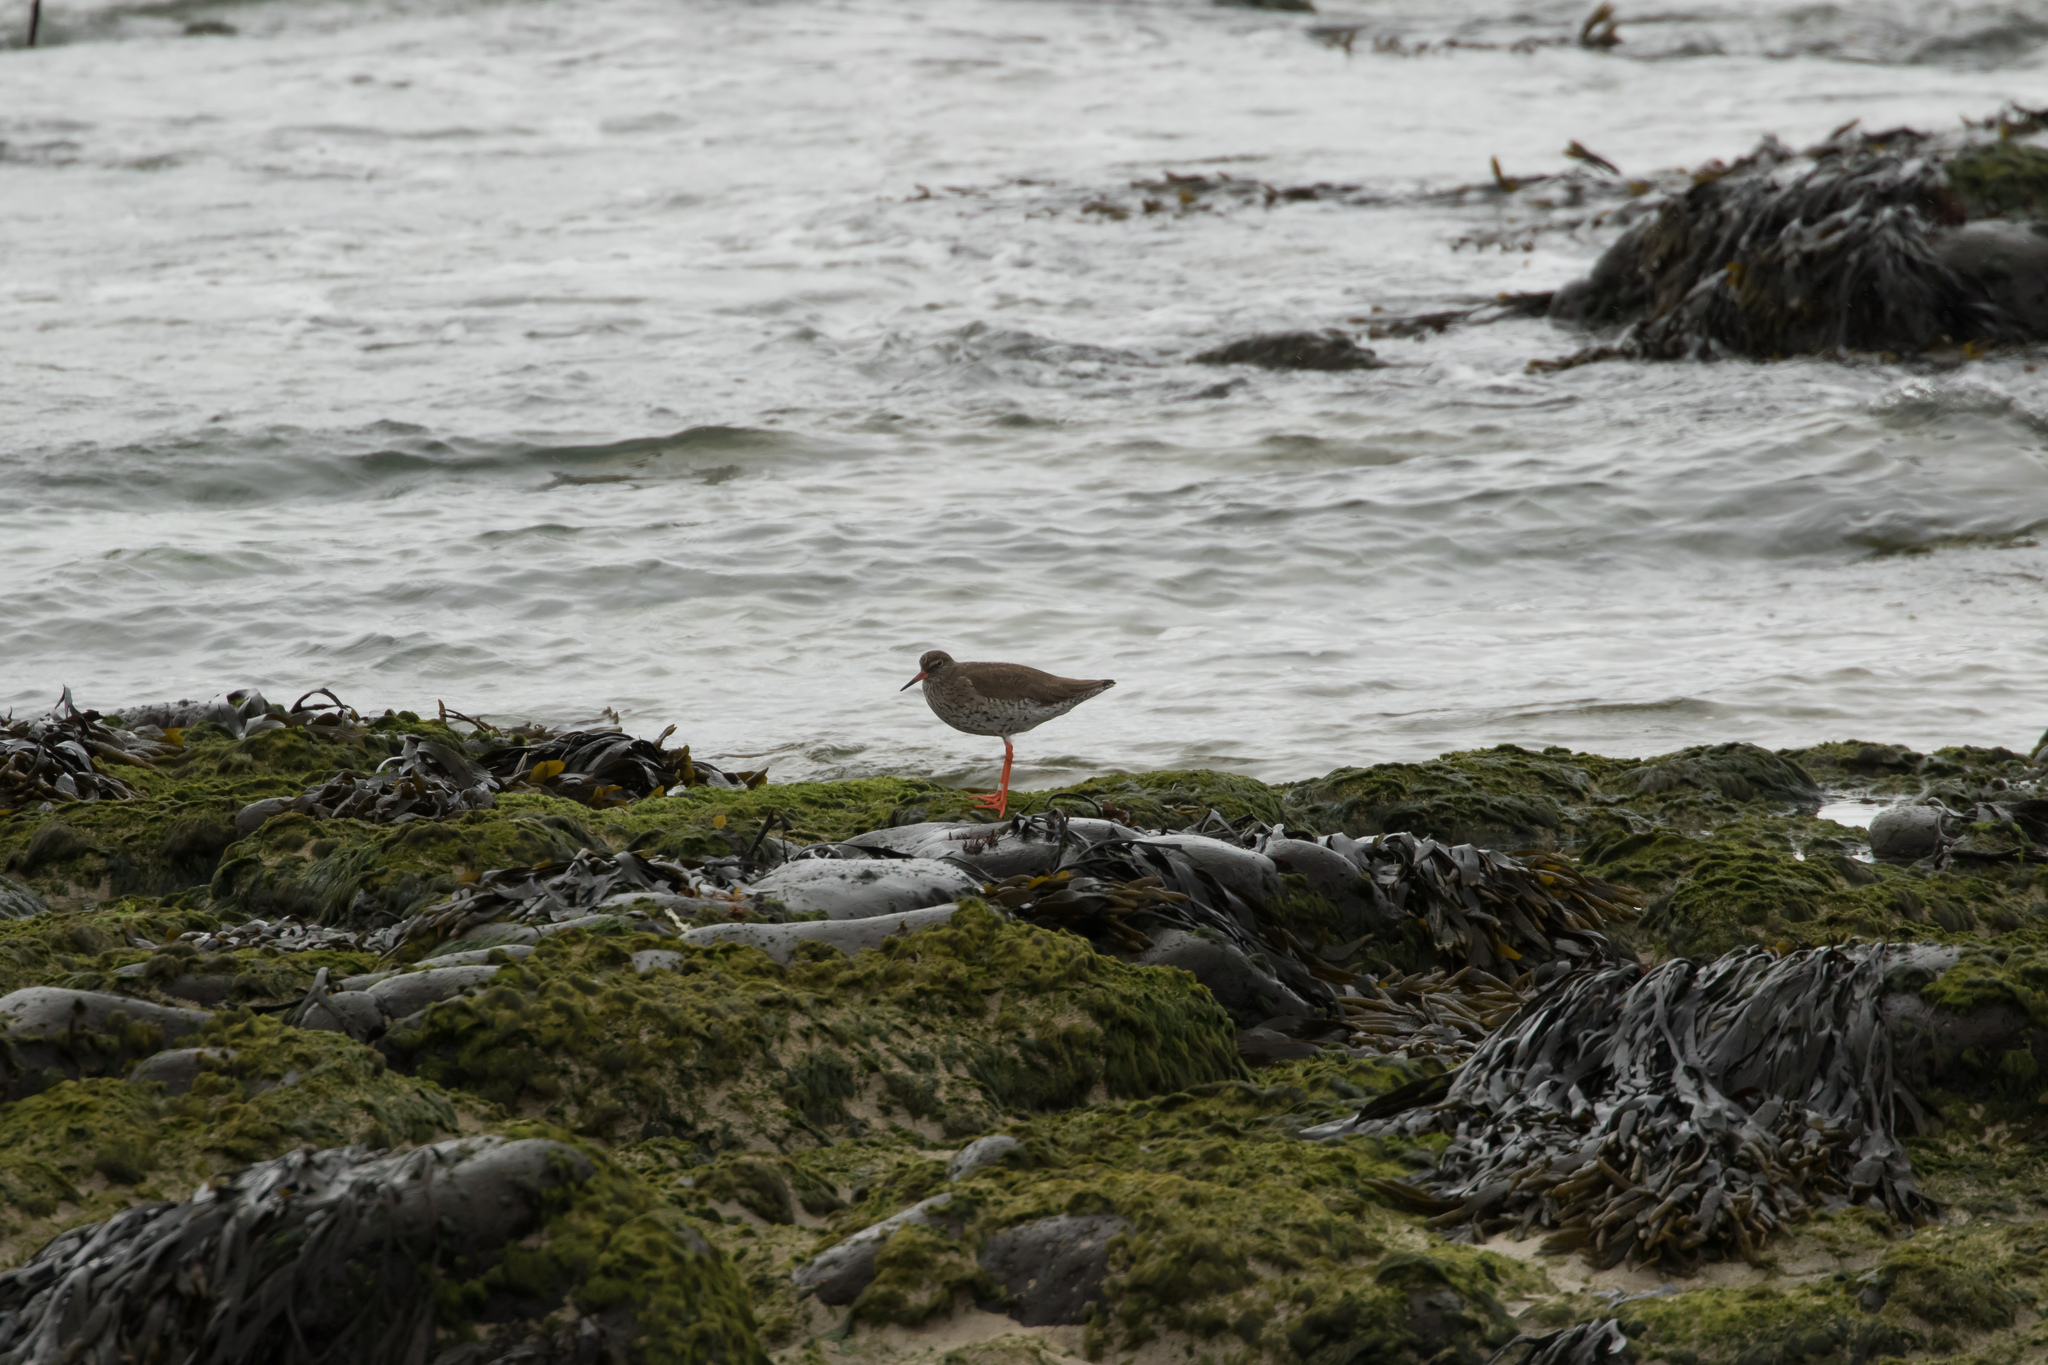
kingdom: Animalia
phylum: Chordata
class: Aves
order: Charadriiformes
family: Scolopacidae
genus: Tringa
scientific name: Tringa totanus
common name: Common redshank
